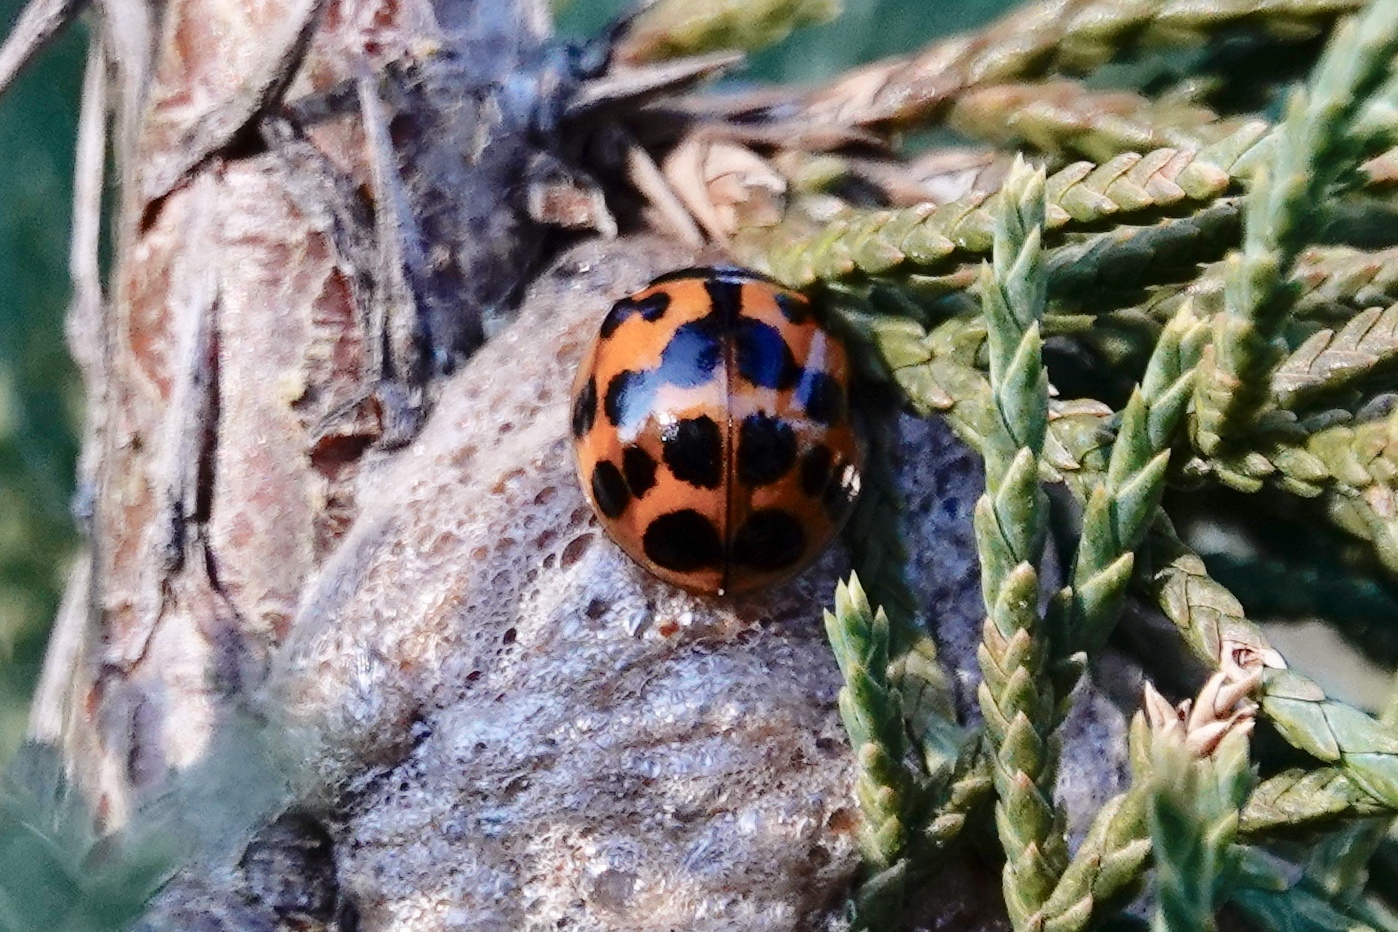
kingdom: Animalia
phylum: Arthropoda
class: Insecta
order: Coleoptera
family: Coccinellidae
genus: Harmonia
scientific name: Harmonia axyridis
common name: Harlequin ladybird
